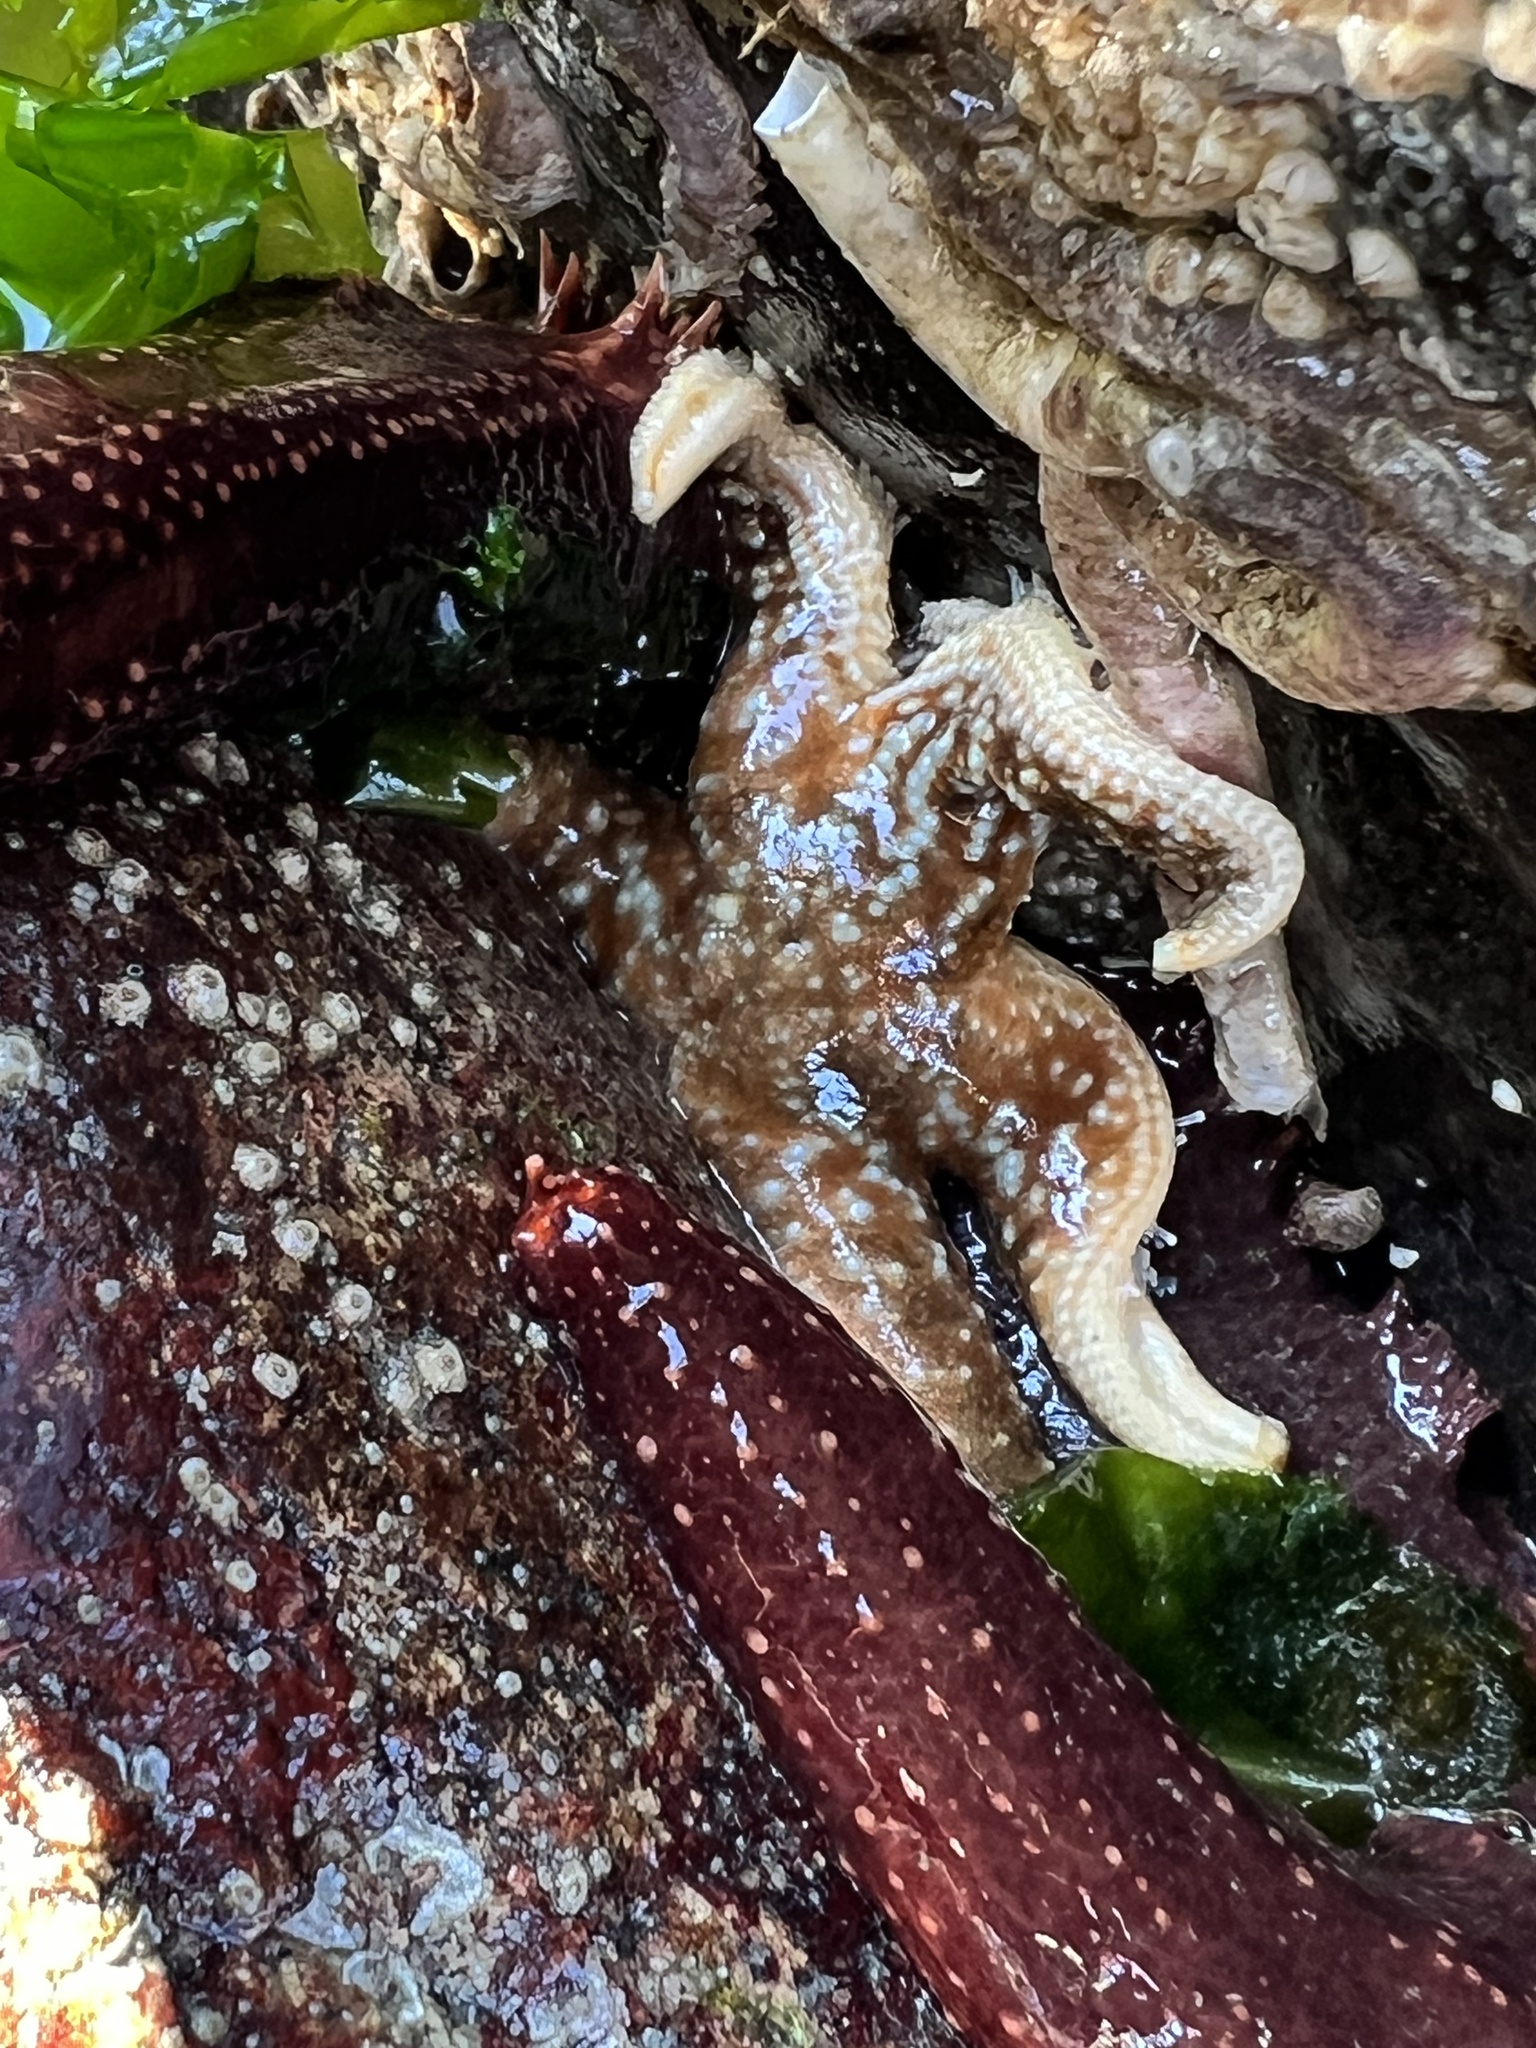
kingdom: Animalia
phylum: Echinodermata
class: Asteroidea
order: Forcipulatida
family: Asteriidae
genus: Evasterias
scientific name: Evasterias troschelii
